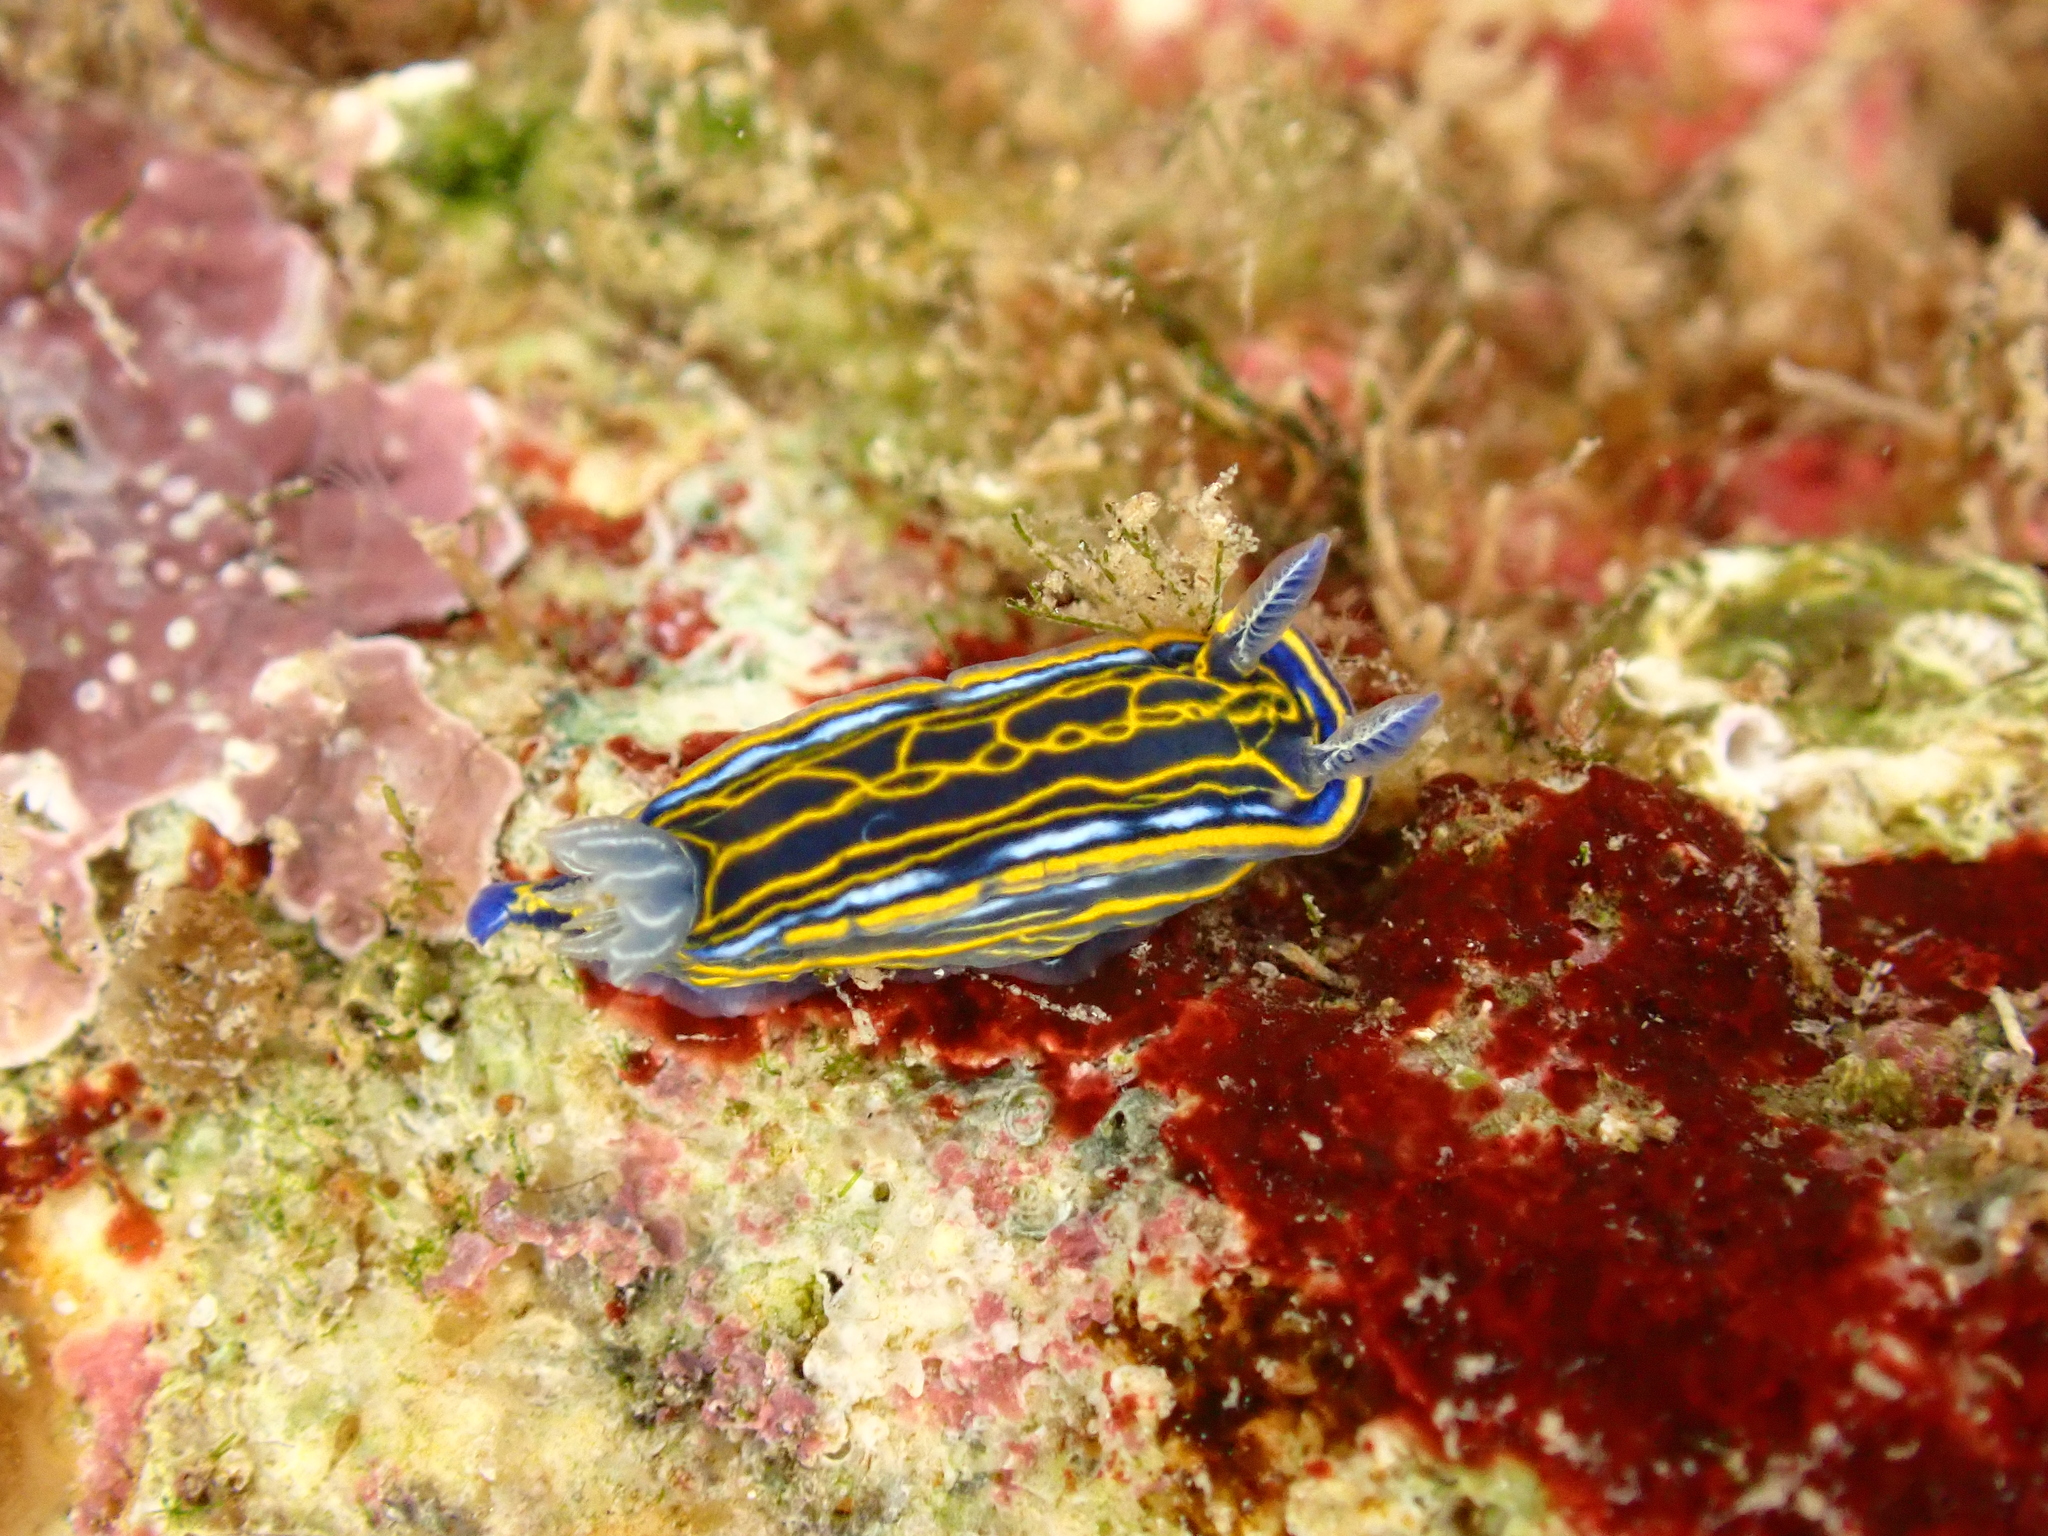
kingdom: Animalia
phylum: Mollusca
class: Gastropoda
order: Nudibranchia
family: Chromodorididae
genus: Felimare
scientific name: Felimare villafranca
